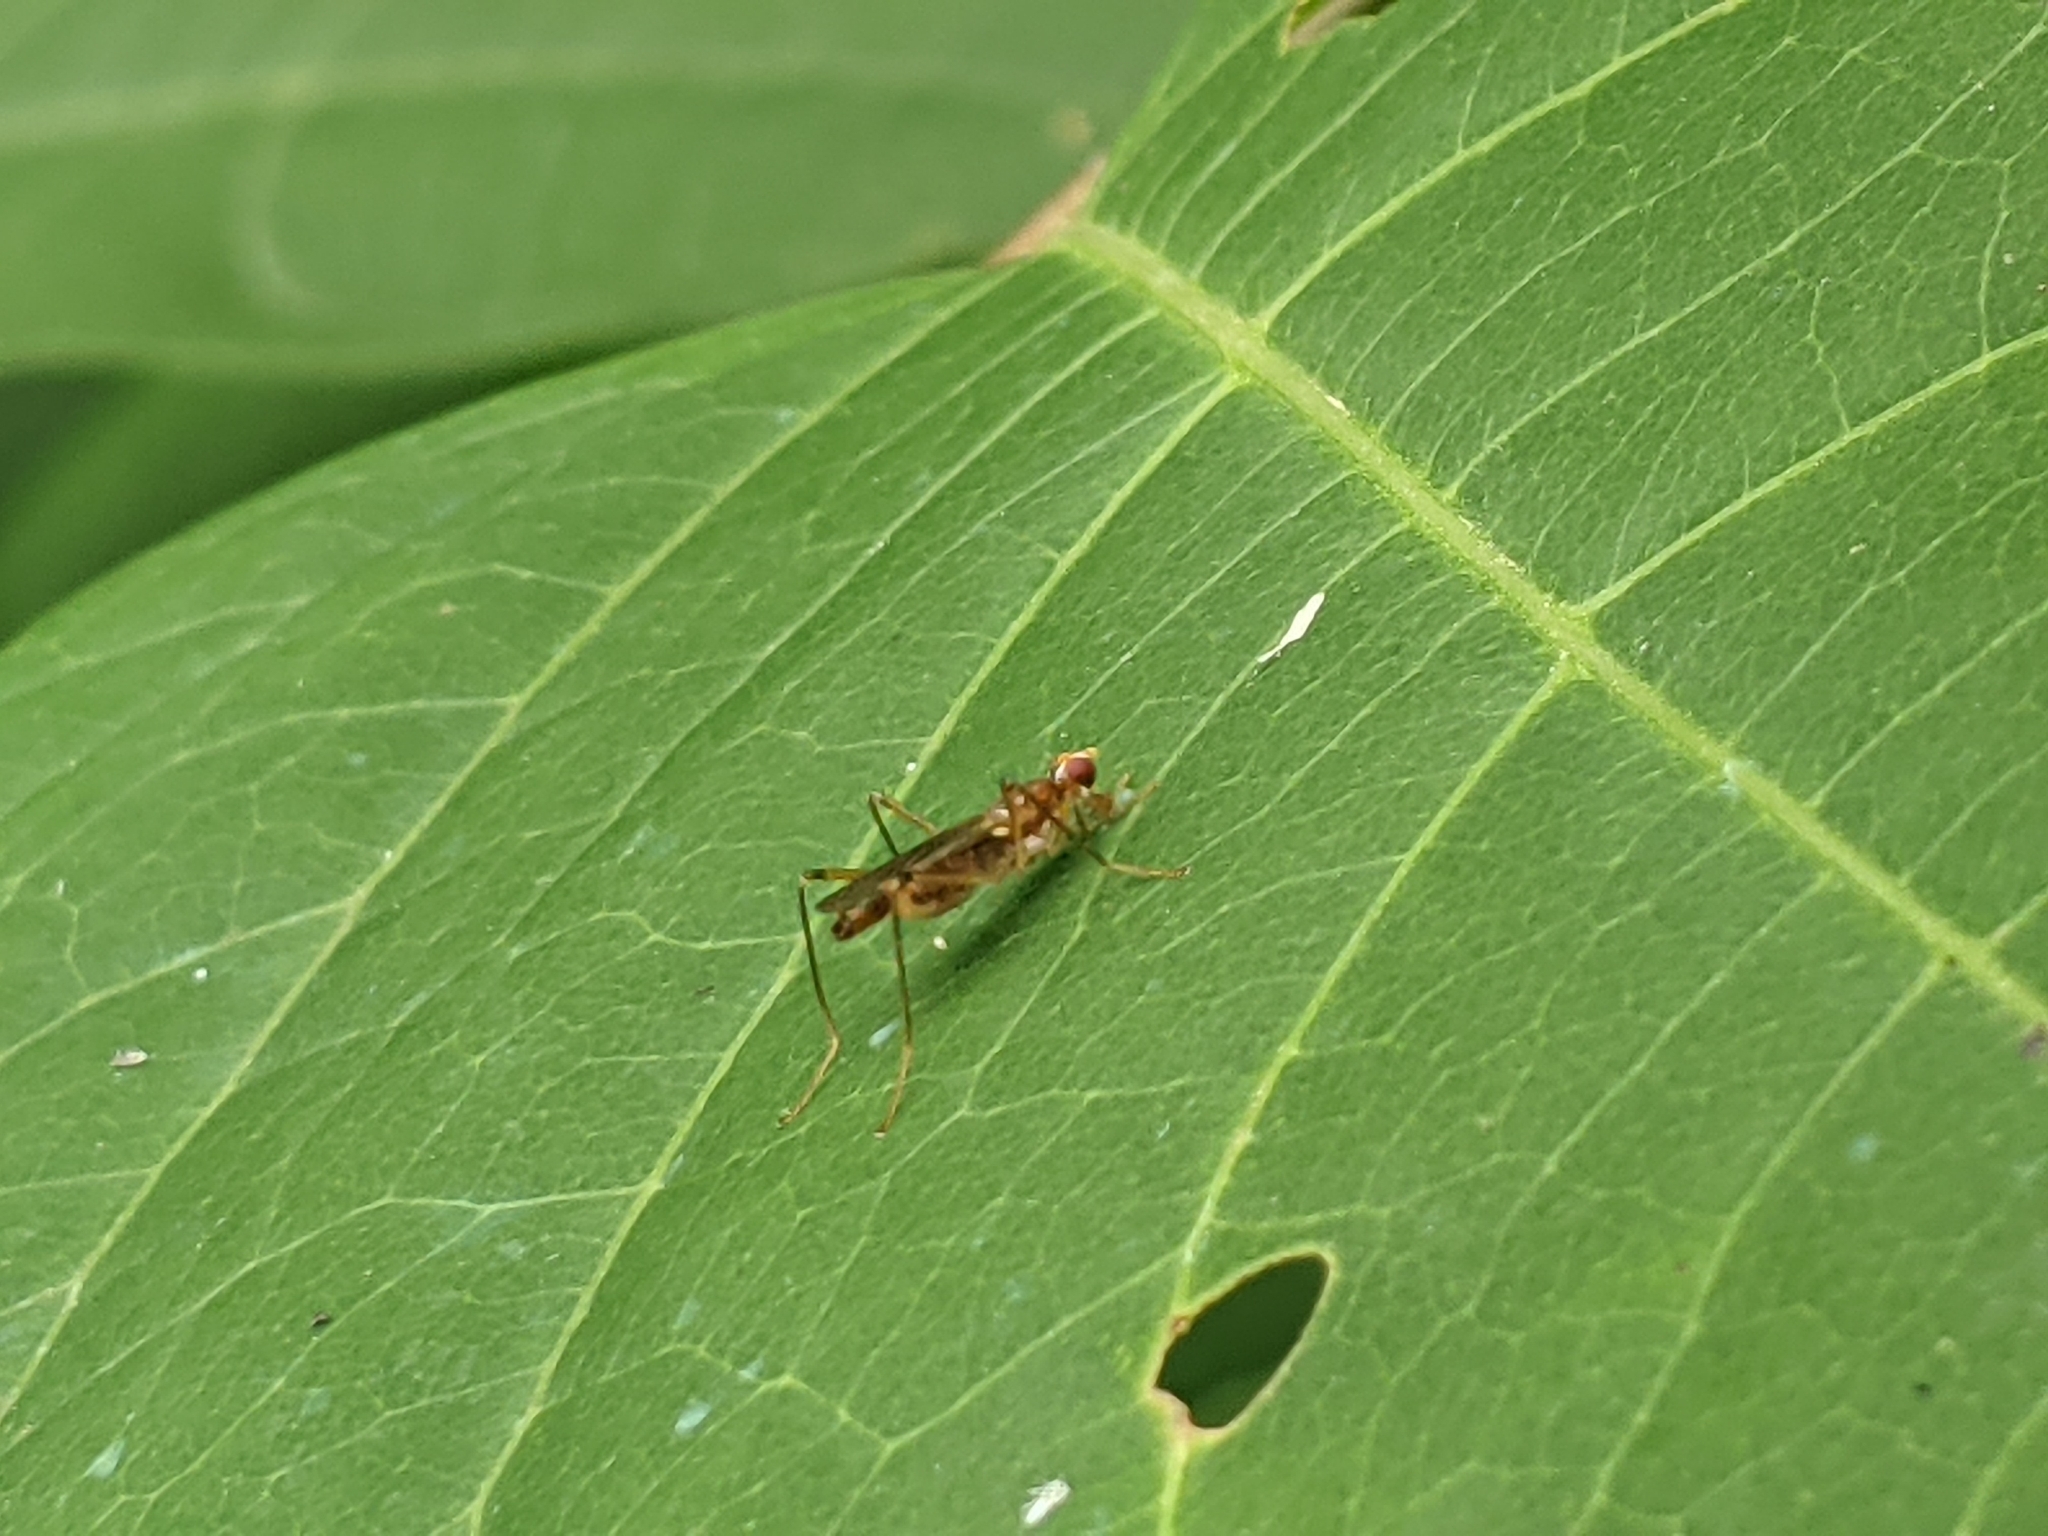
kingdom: Animalia
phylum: Arthropoda
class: Insecta
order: Diptera
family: Micropezidae
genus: Compsobata
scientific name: Compsobata univitta
